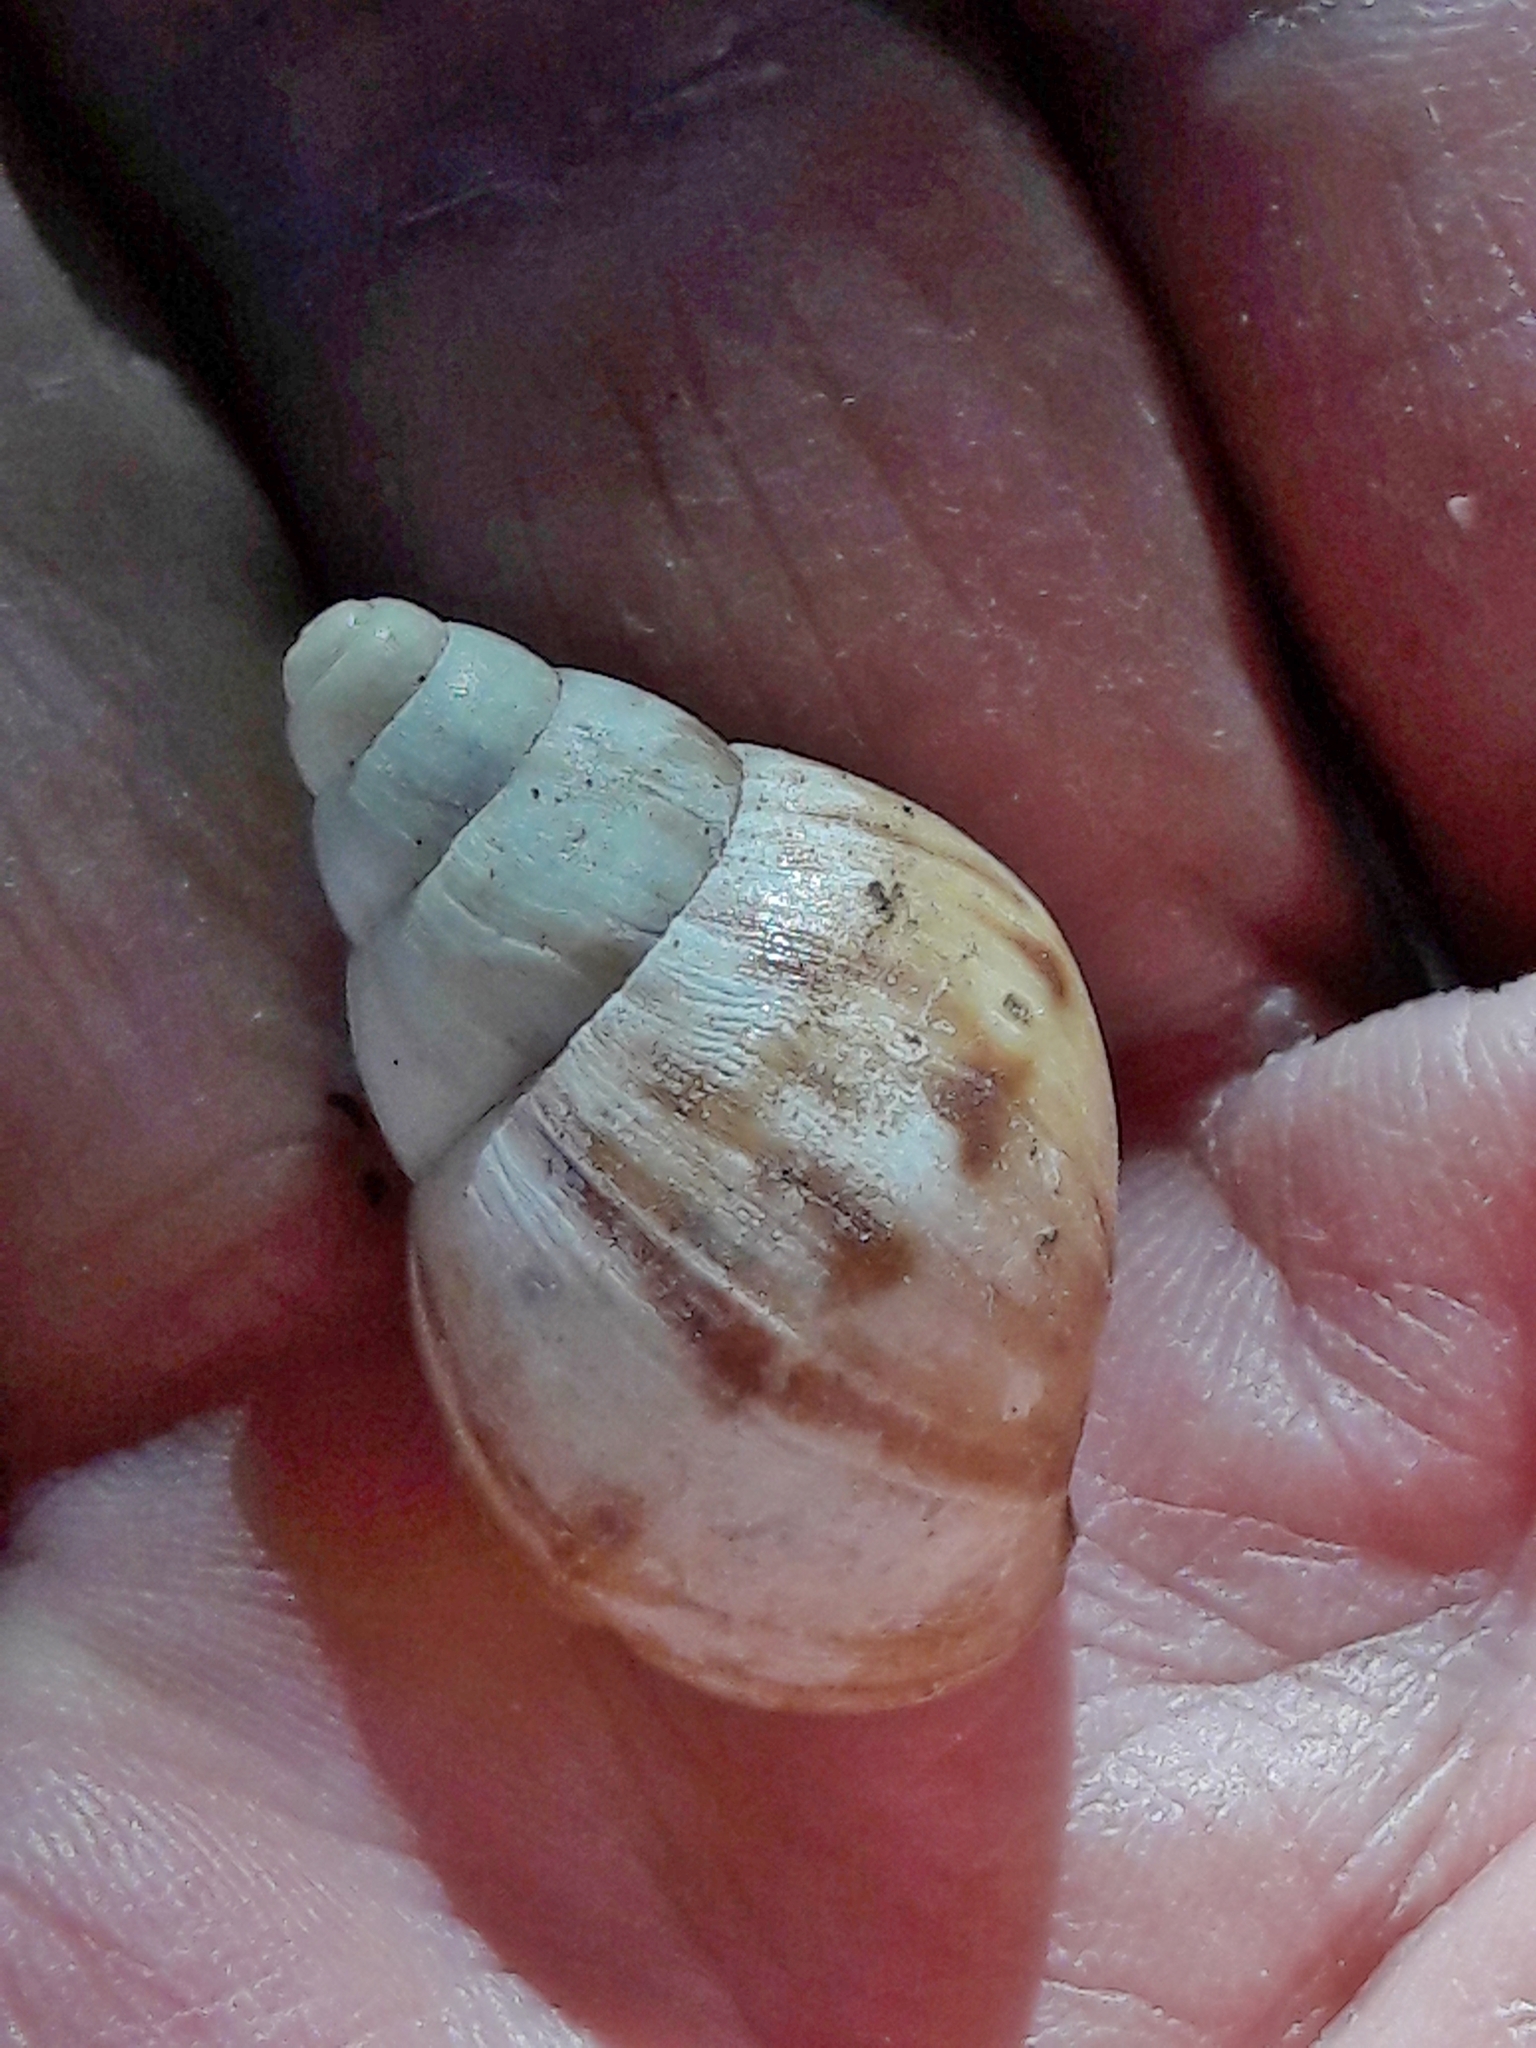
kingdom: Animalia
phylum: Mollusca
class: Gastropoda
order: Stylommatophora
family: Achatinidae
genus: Lissachatina
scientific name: Lissachatina fulica
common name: Giant african snail
